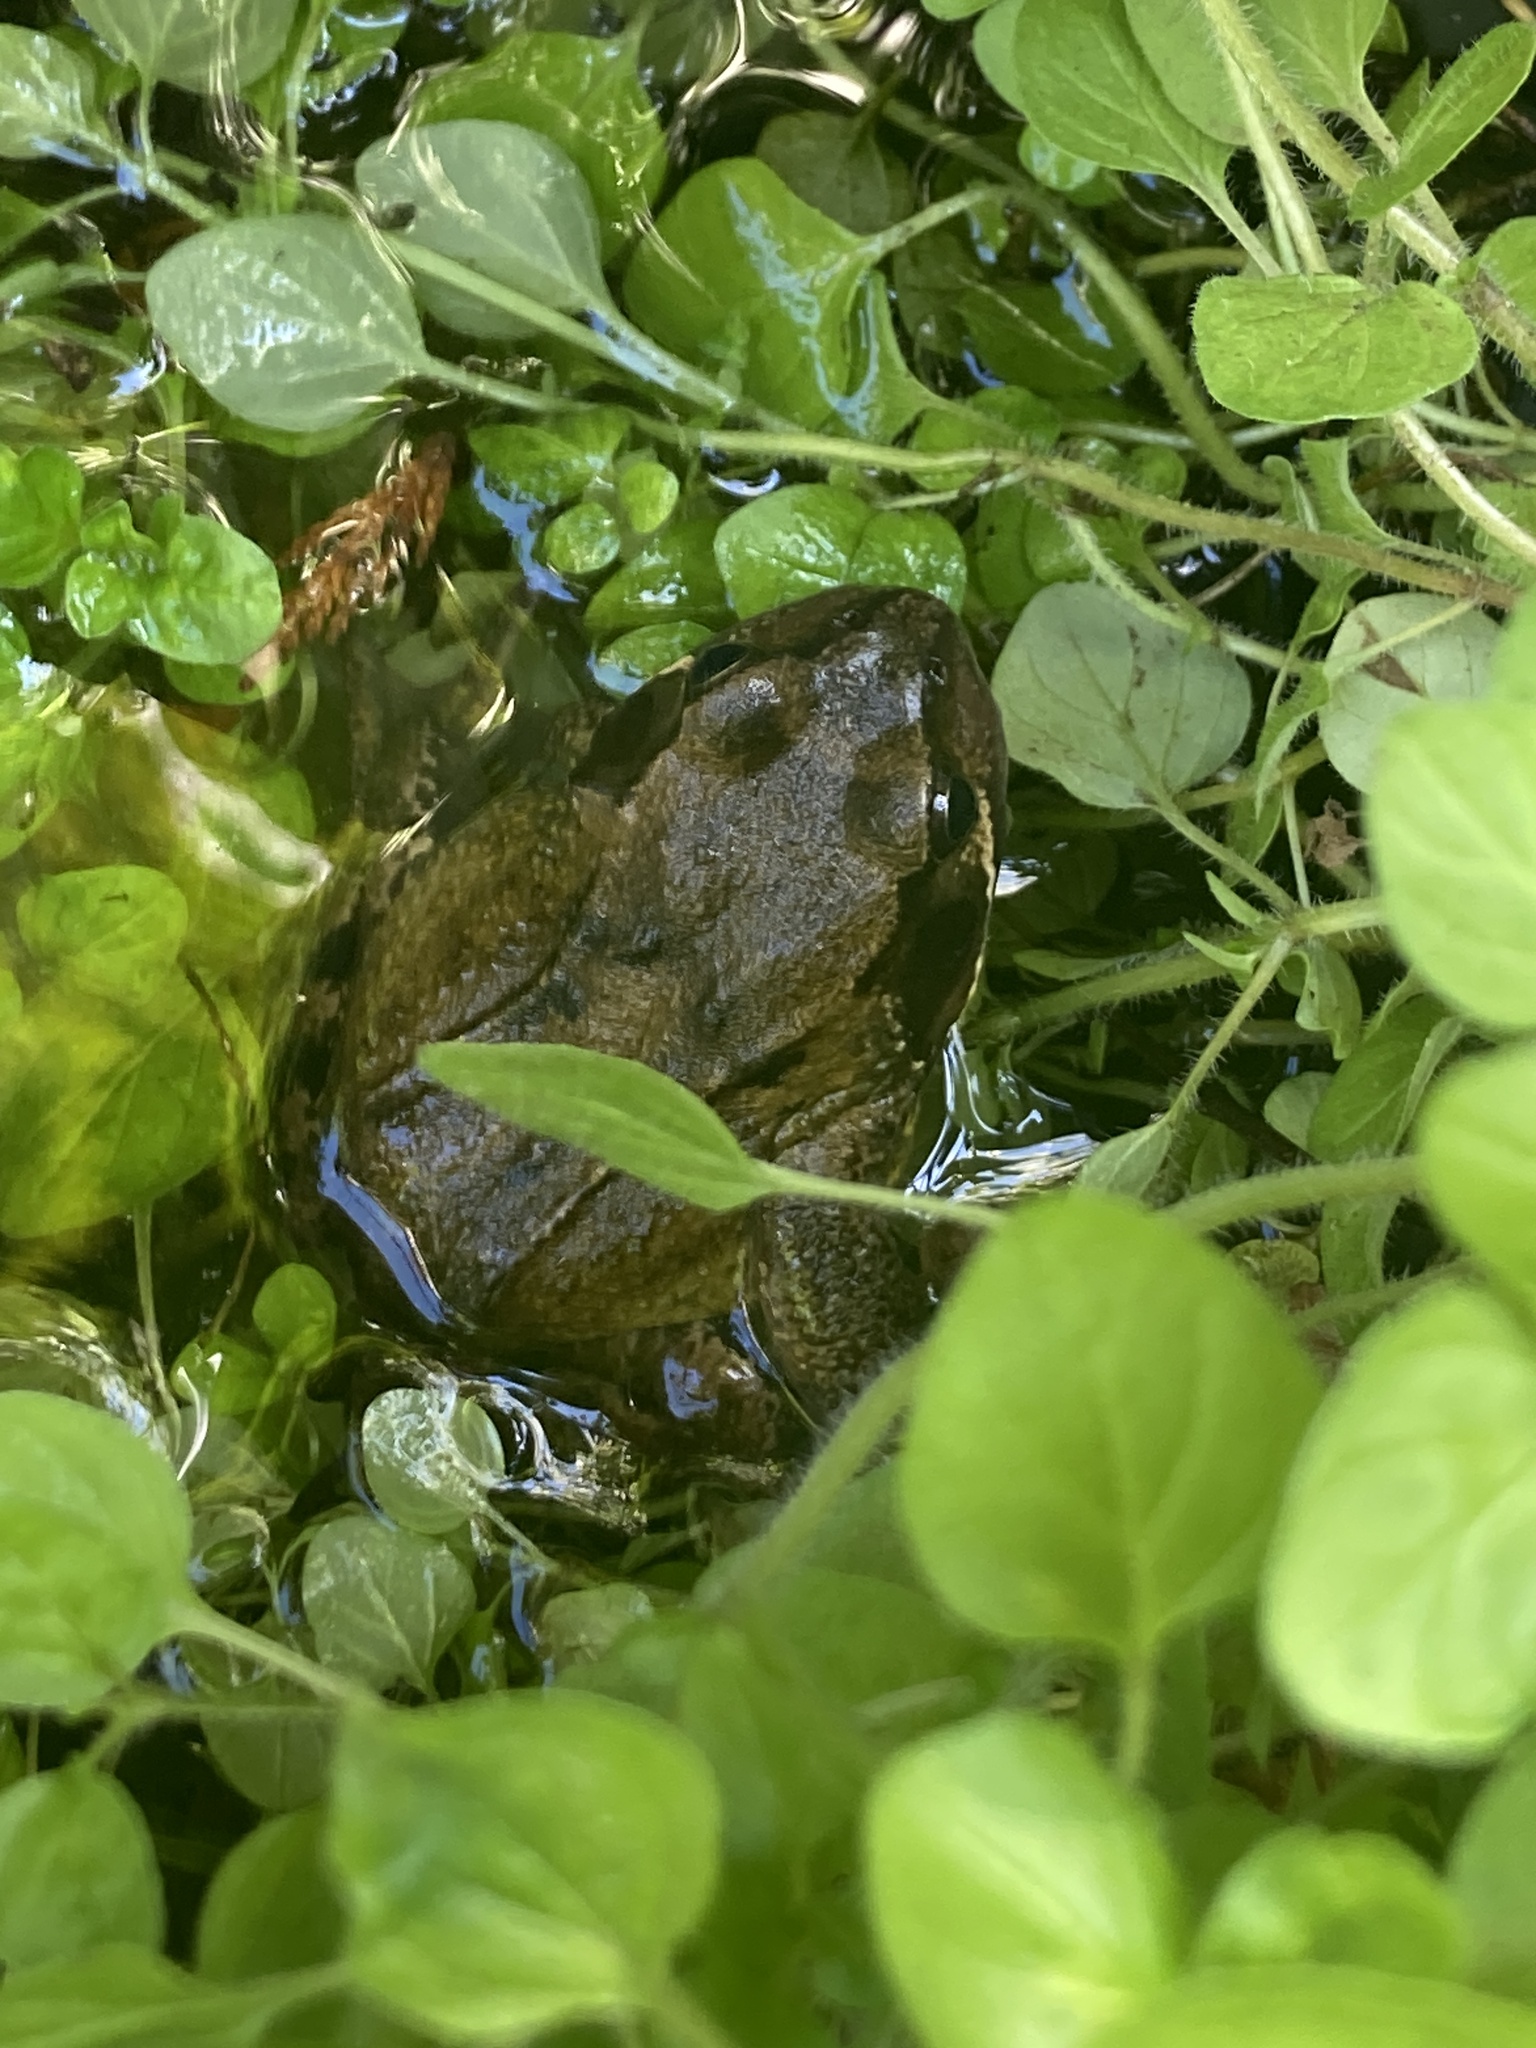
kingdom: Animalia
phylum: Chordata
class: Amphibia
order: Anura
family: Ranidae
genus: Rana
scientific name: Rana temporaria
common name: Common frog
